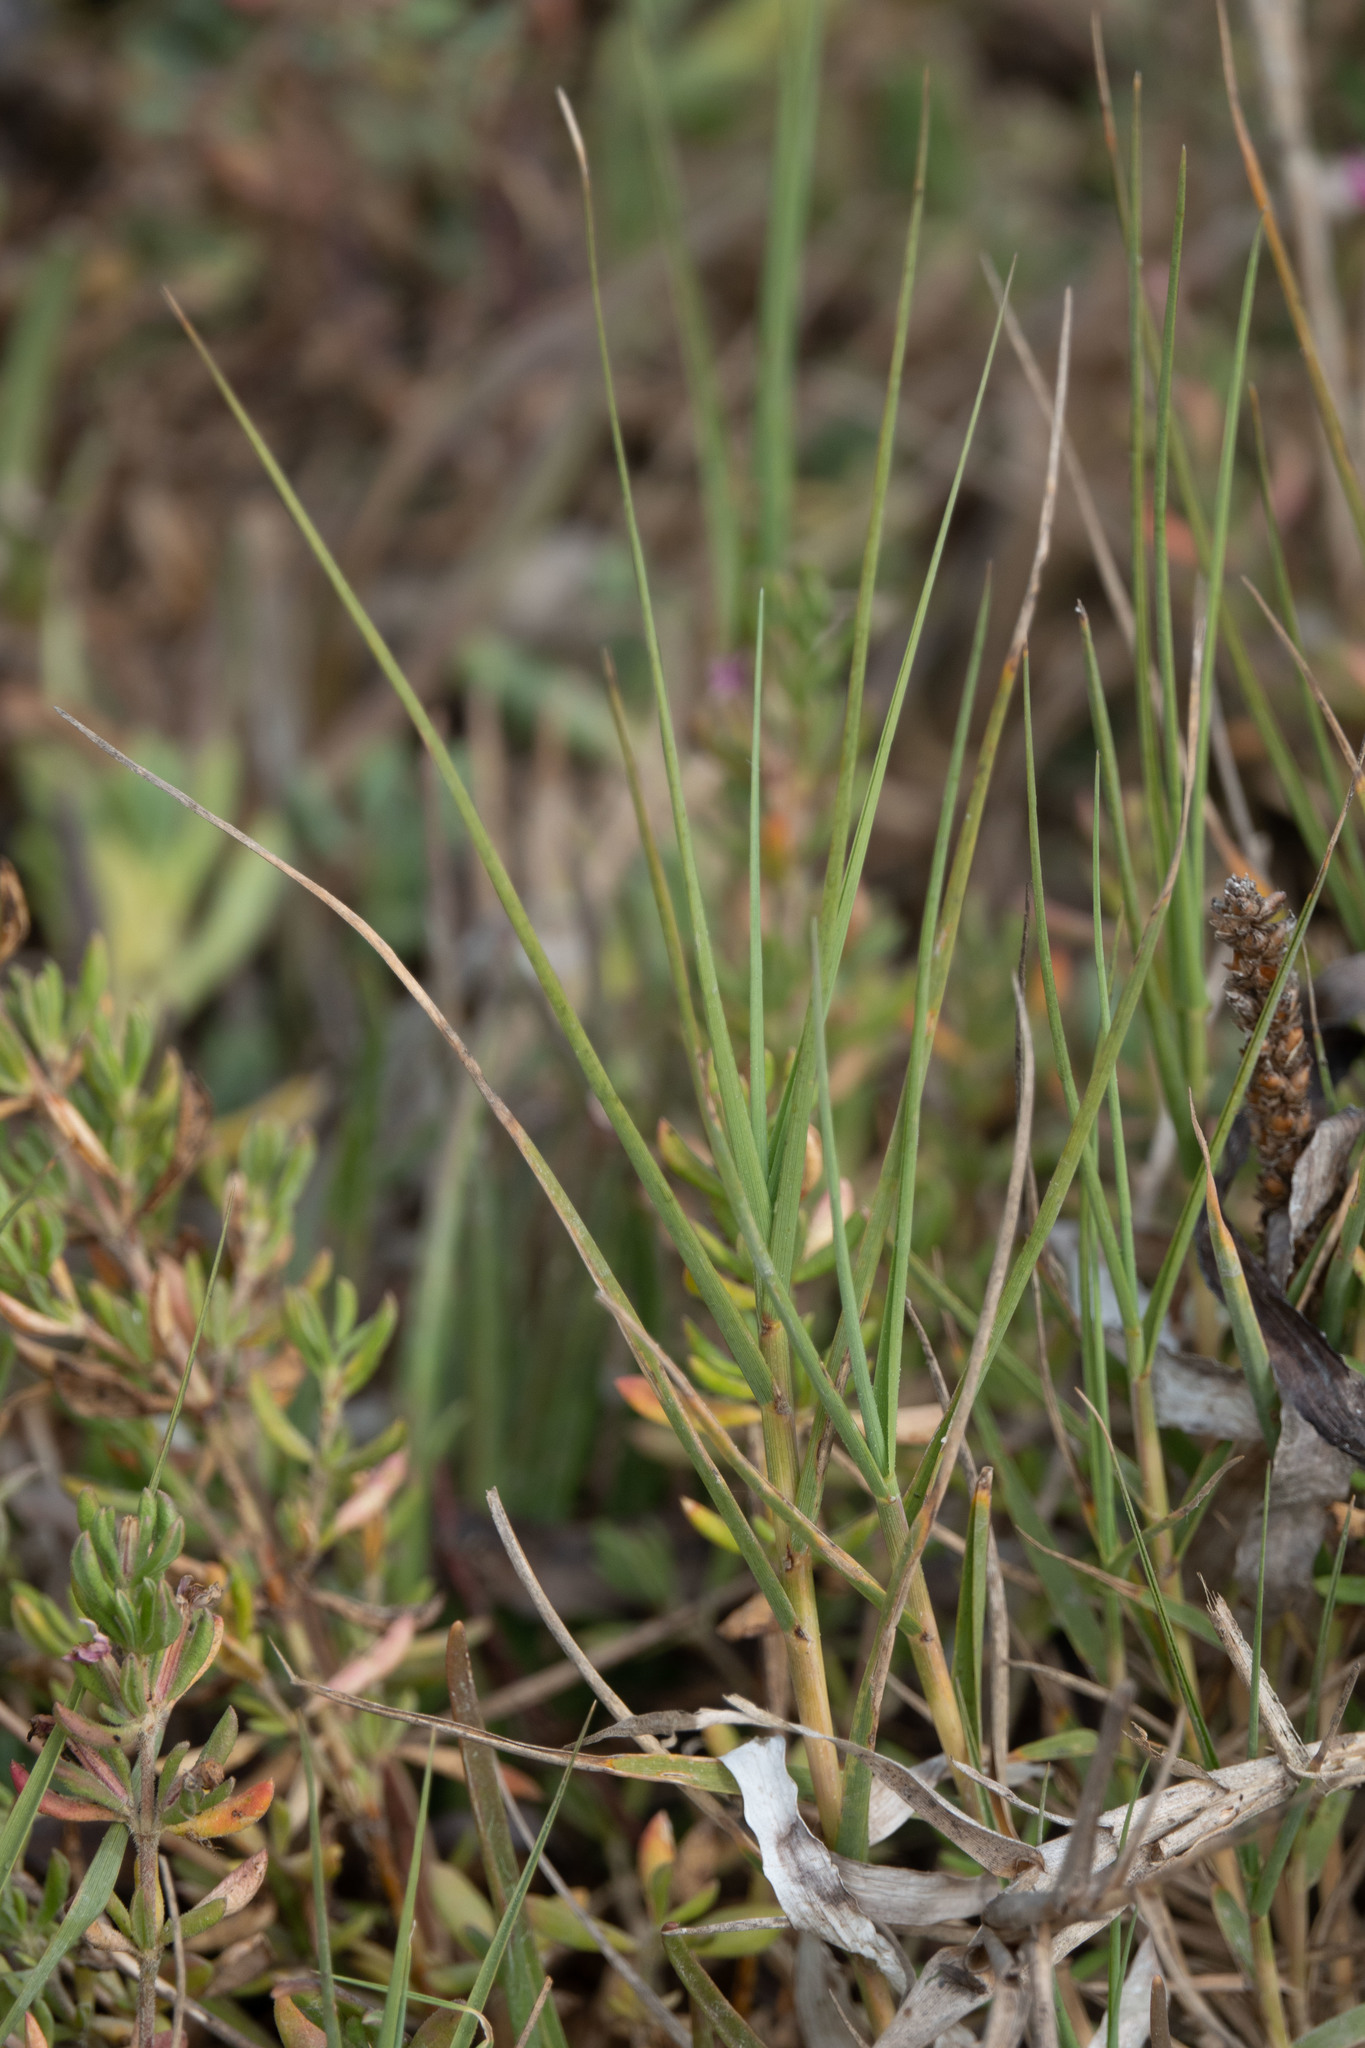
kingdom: Plantae
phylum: Tracheophyta
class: Liliopsida
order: Poales
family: Poaceae
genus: Distichlis
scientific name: Distichlis spicata
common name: Saltgrass
